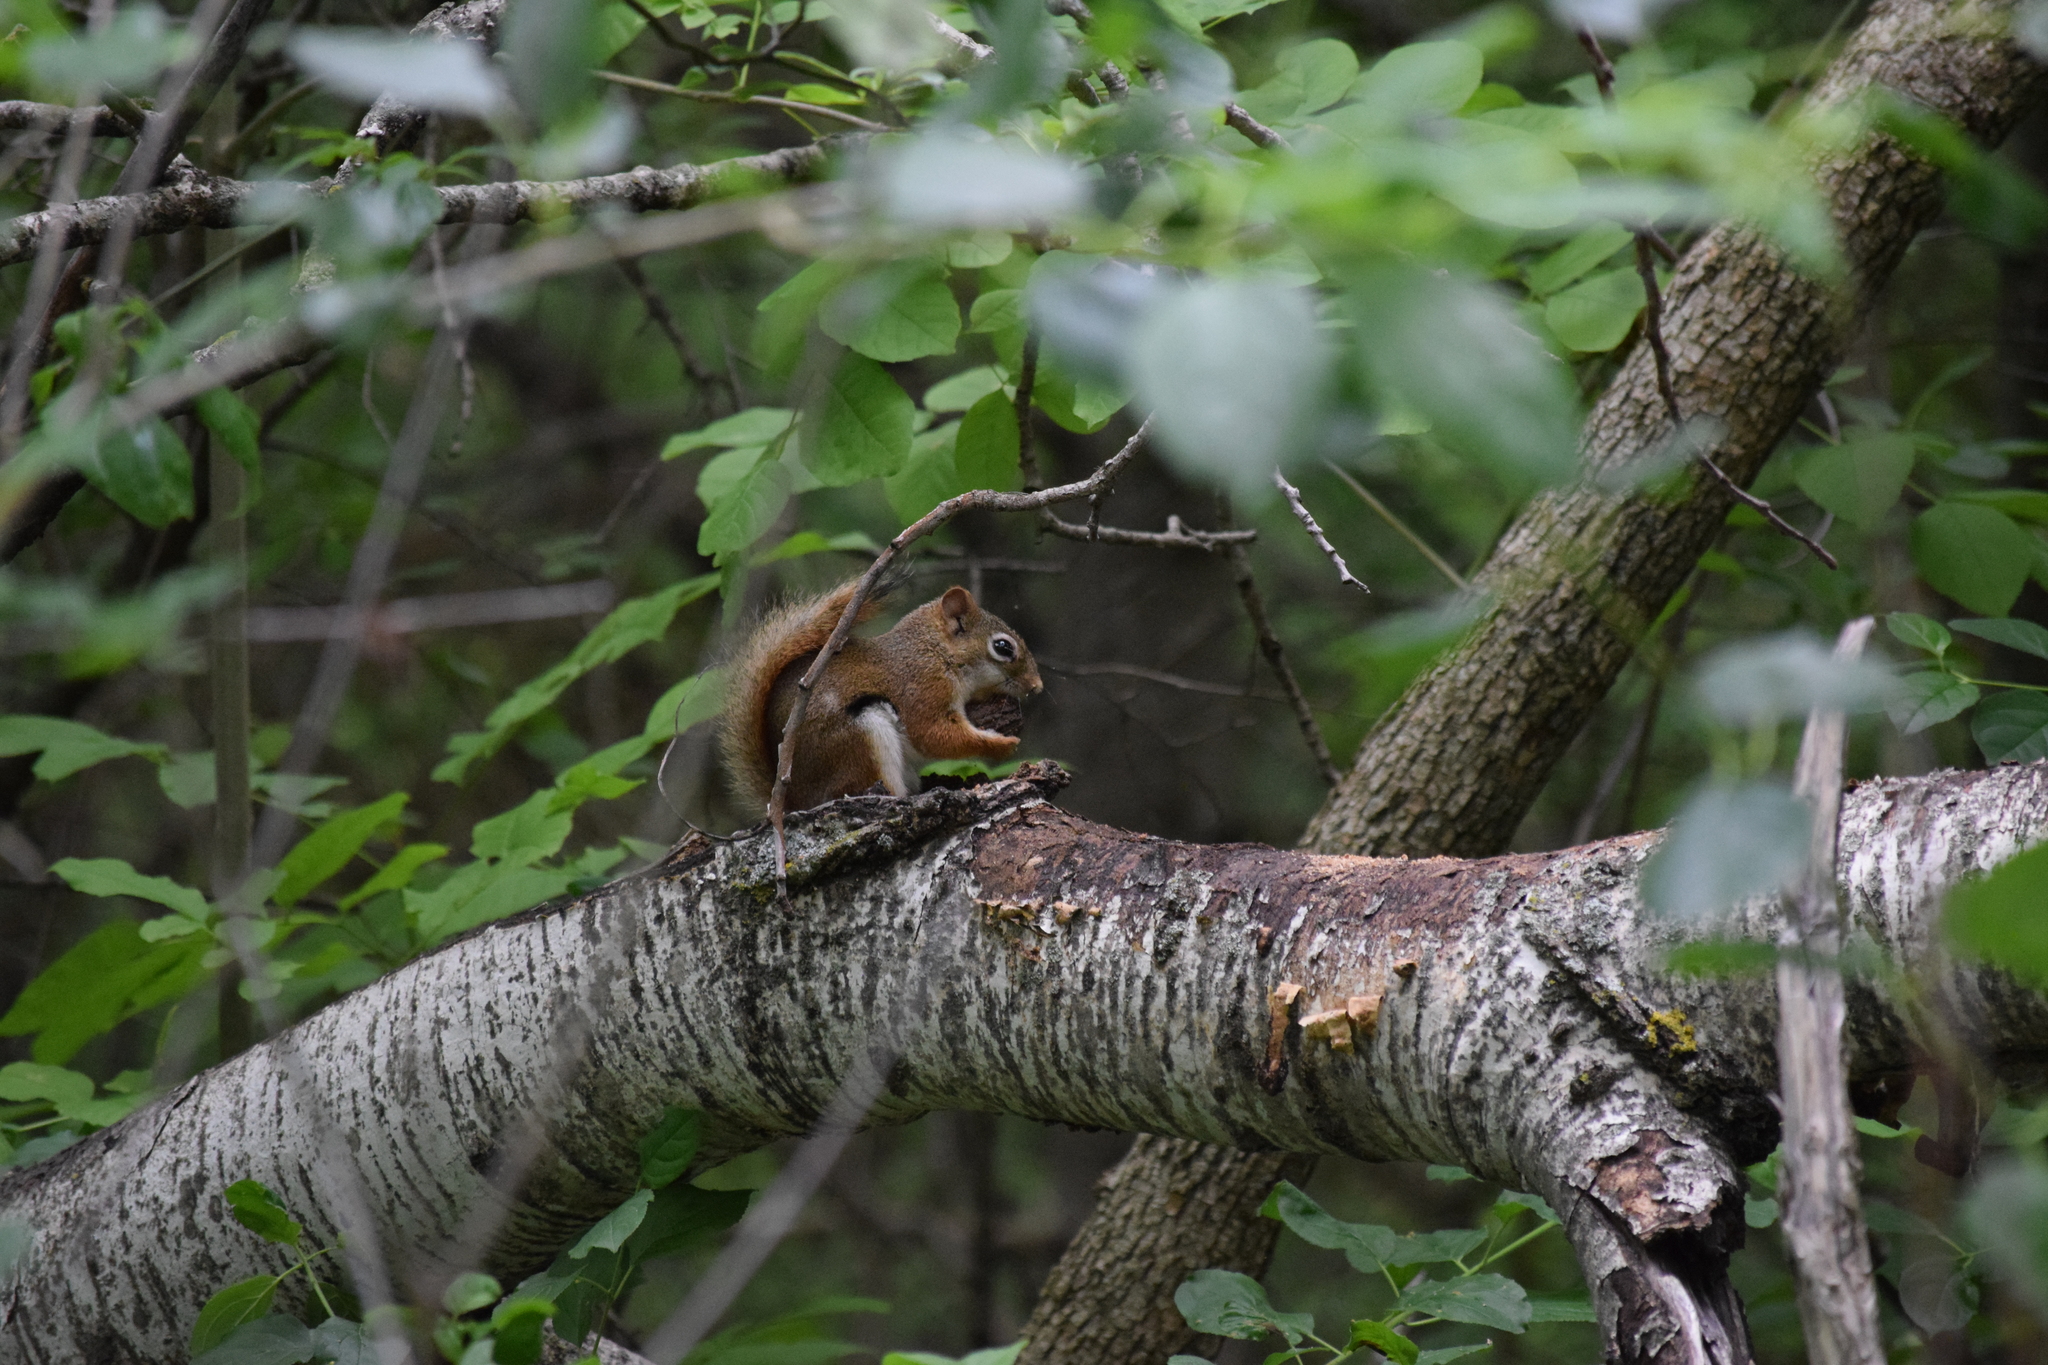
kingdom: Animalia
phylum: Chordata
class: Mammalia
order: Rodentia
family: Sciuridae
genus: Tamiasciurus
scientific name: Tamiasciurus hudsonicus
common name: Red squirrel
